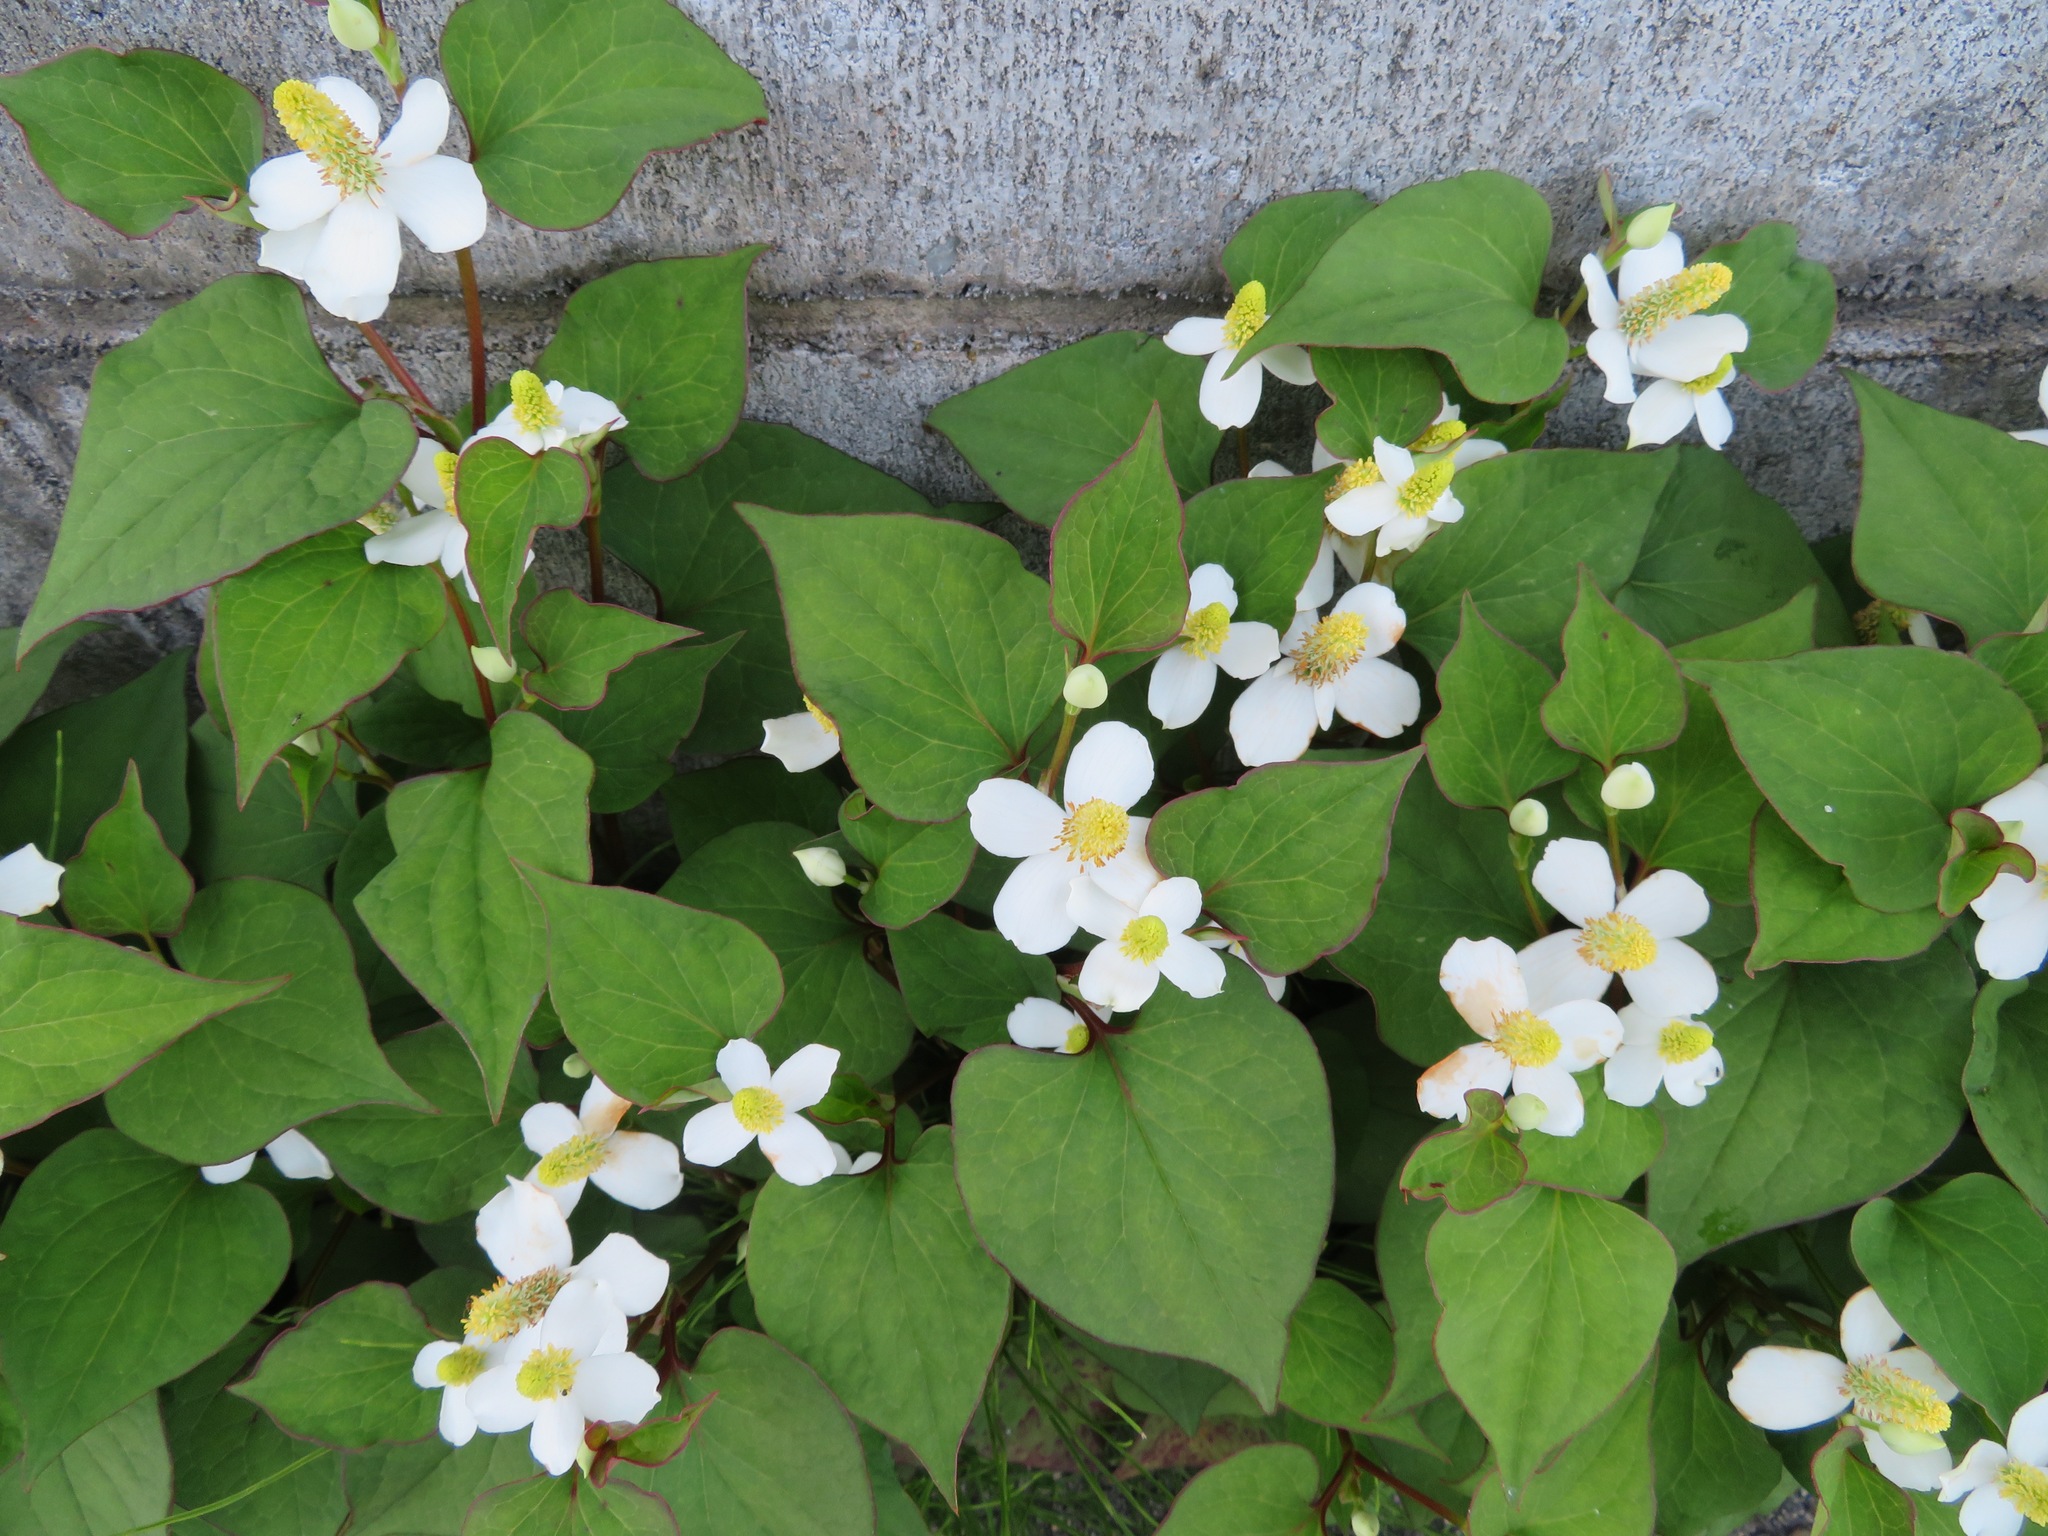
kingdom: Plantae
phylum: Tracheophyta
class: Magnoliopsida
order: Piperales
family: Saururaceae
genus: Houttuynia
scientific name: Houttuynia cordata
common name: Chameleon
